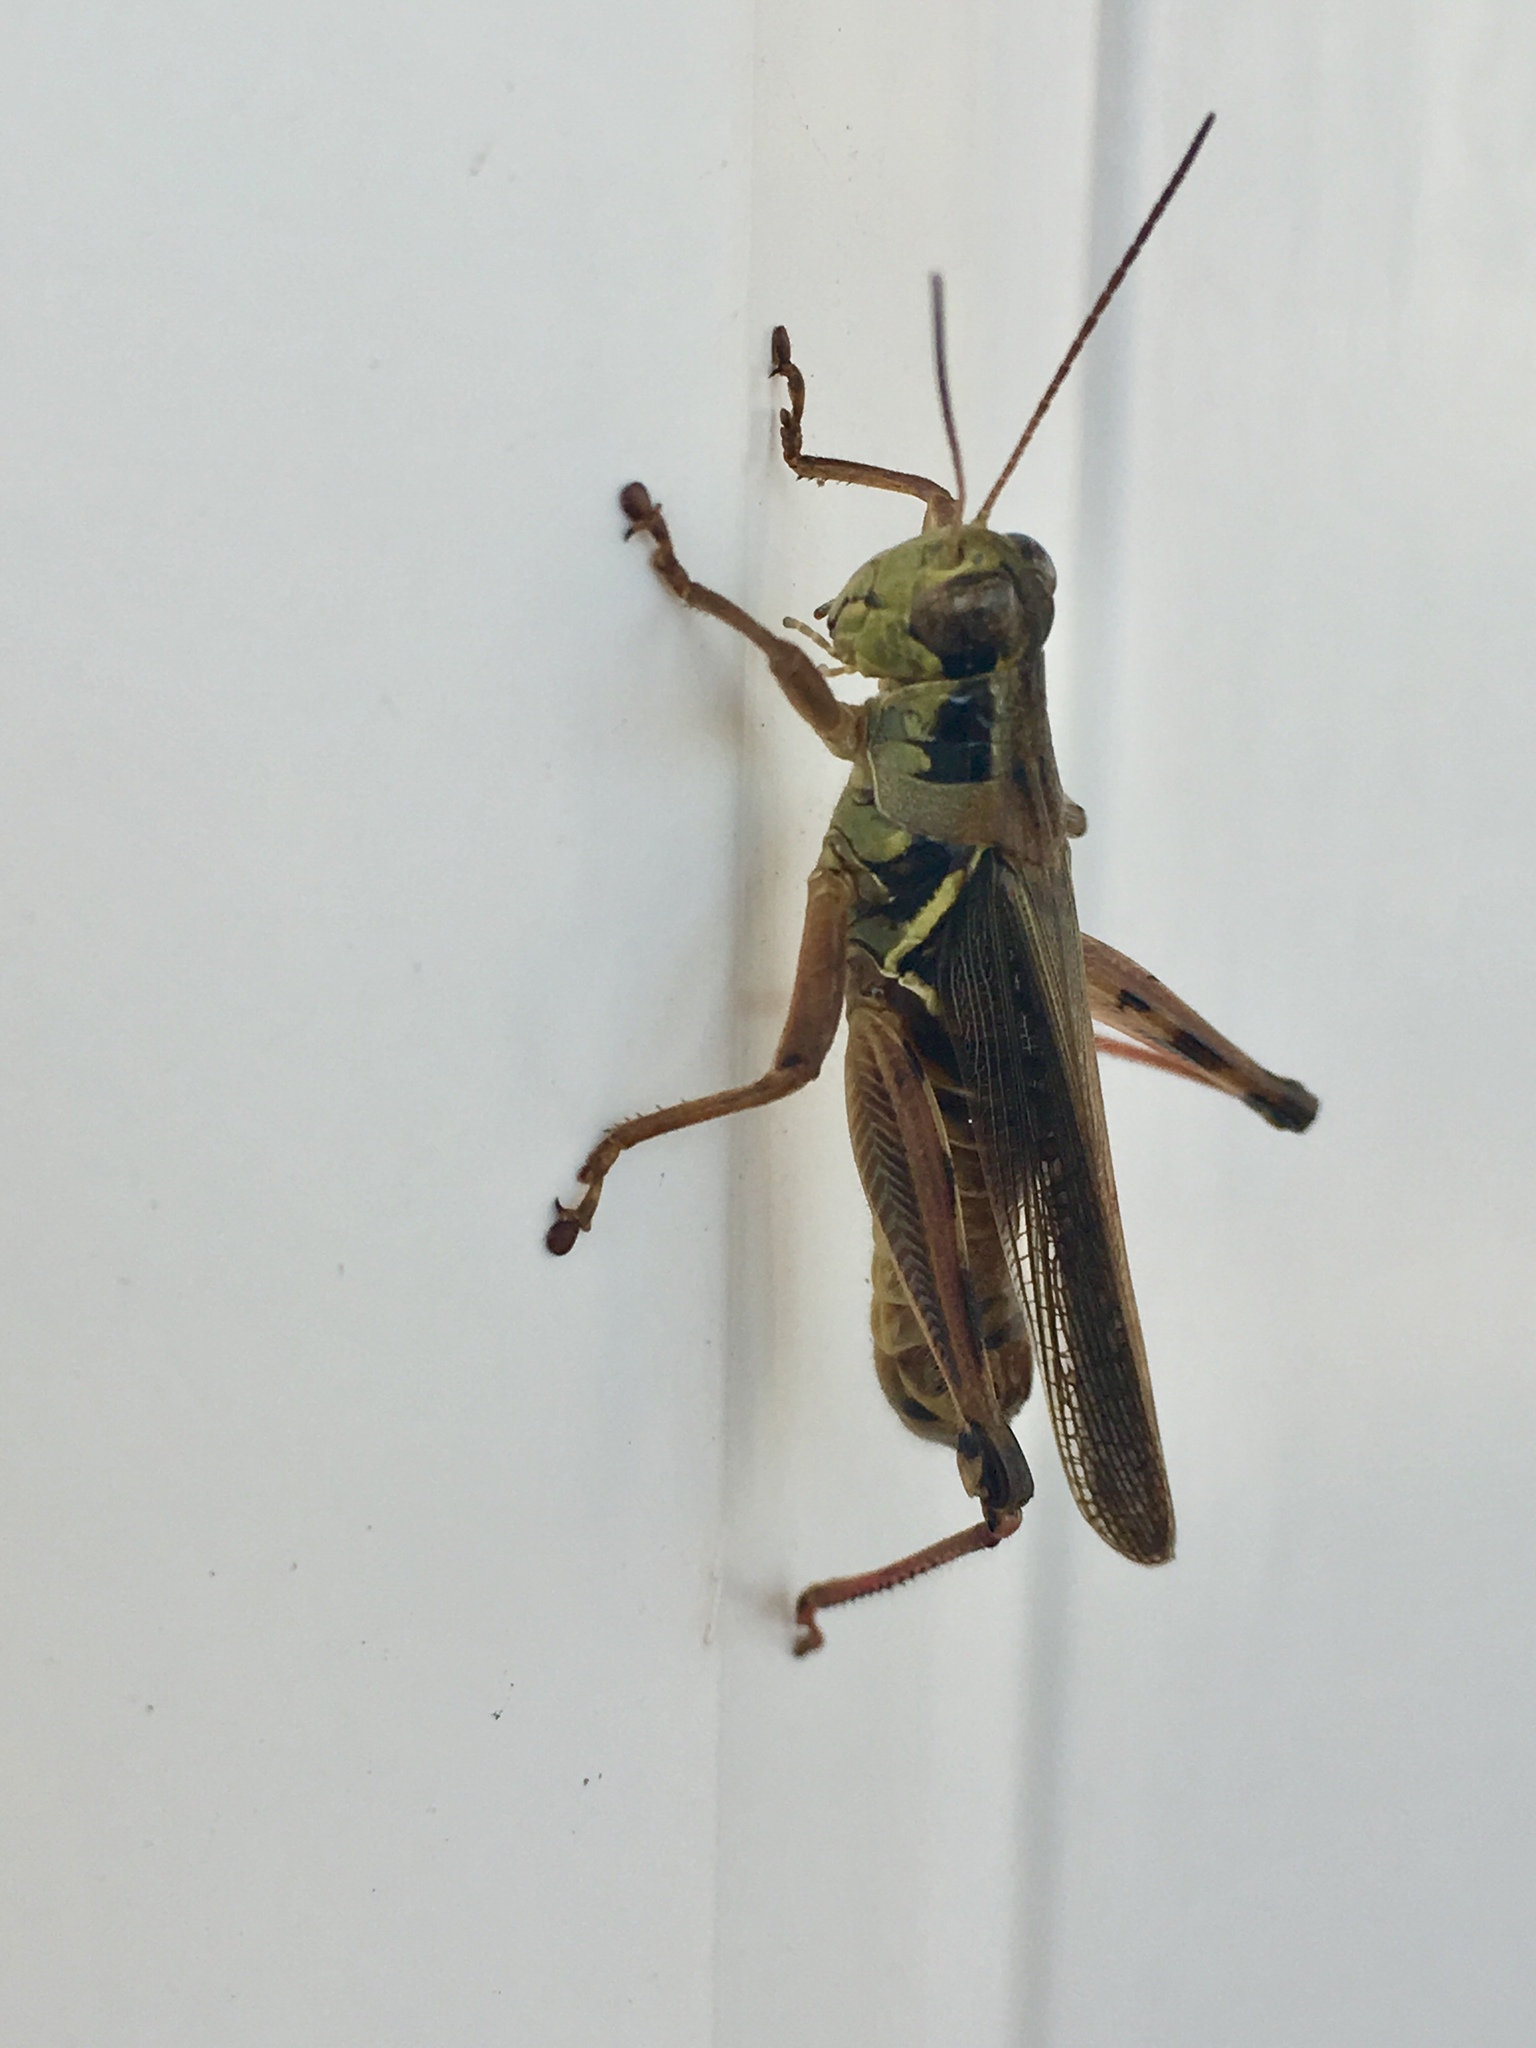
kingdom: Animalia
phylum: Arthropoda
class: Insecta
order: Orthoptera
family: Acrididae
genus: Melanoplus
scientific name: Melanoplus femurrubrum
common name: Red-legged grasshopper
